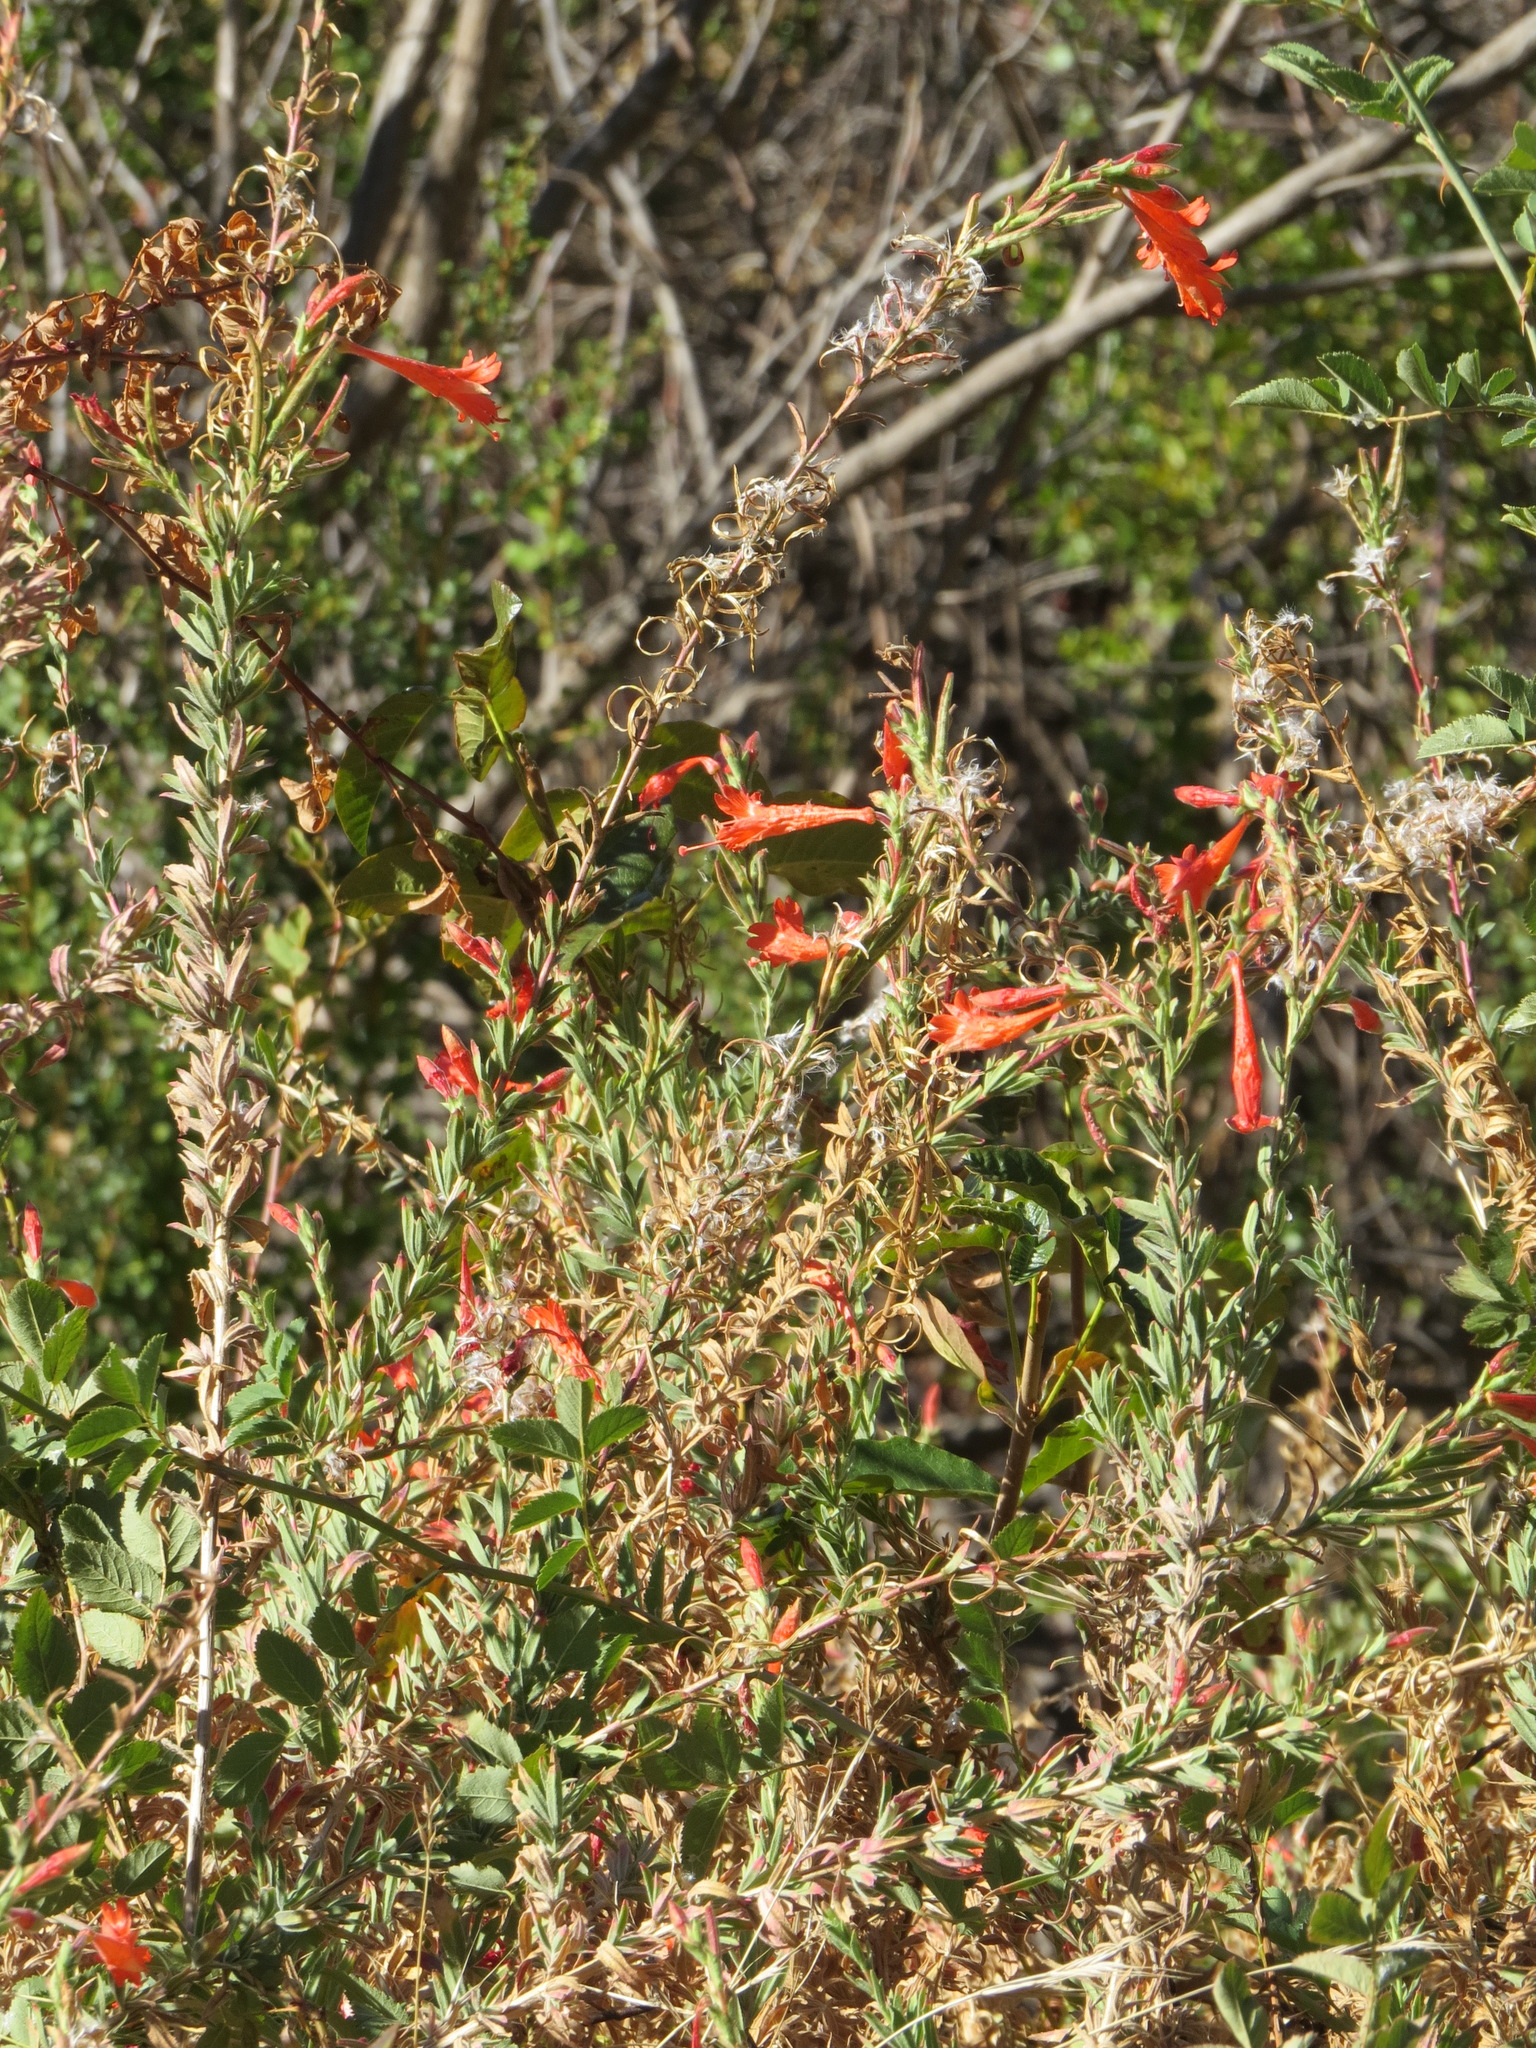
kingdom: Plantae
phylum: Tracheophyta
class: Magnoliopsida
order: Myrtales
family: Onagraceae
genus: Epilobium
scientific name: Epilobium canum
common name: California-fuchsia
